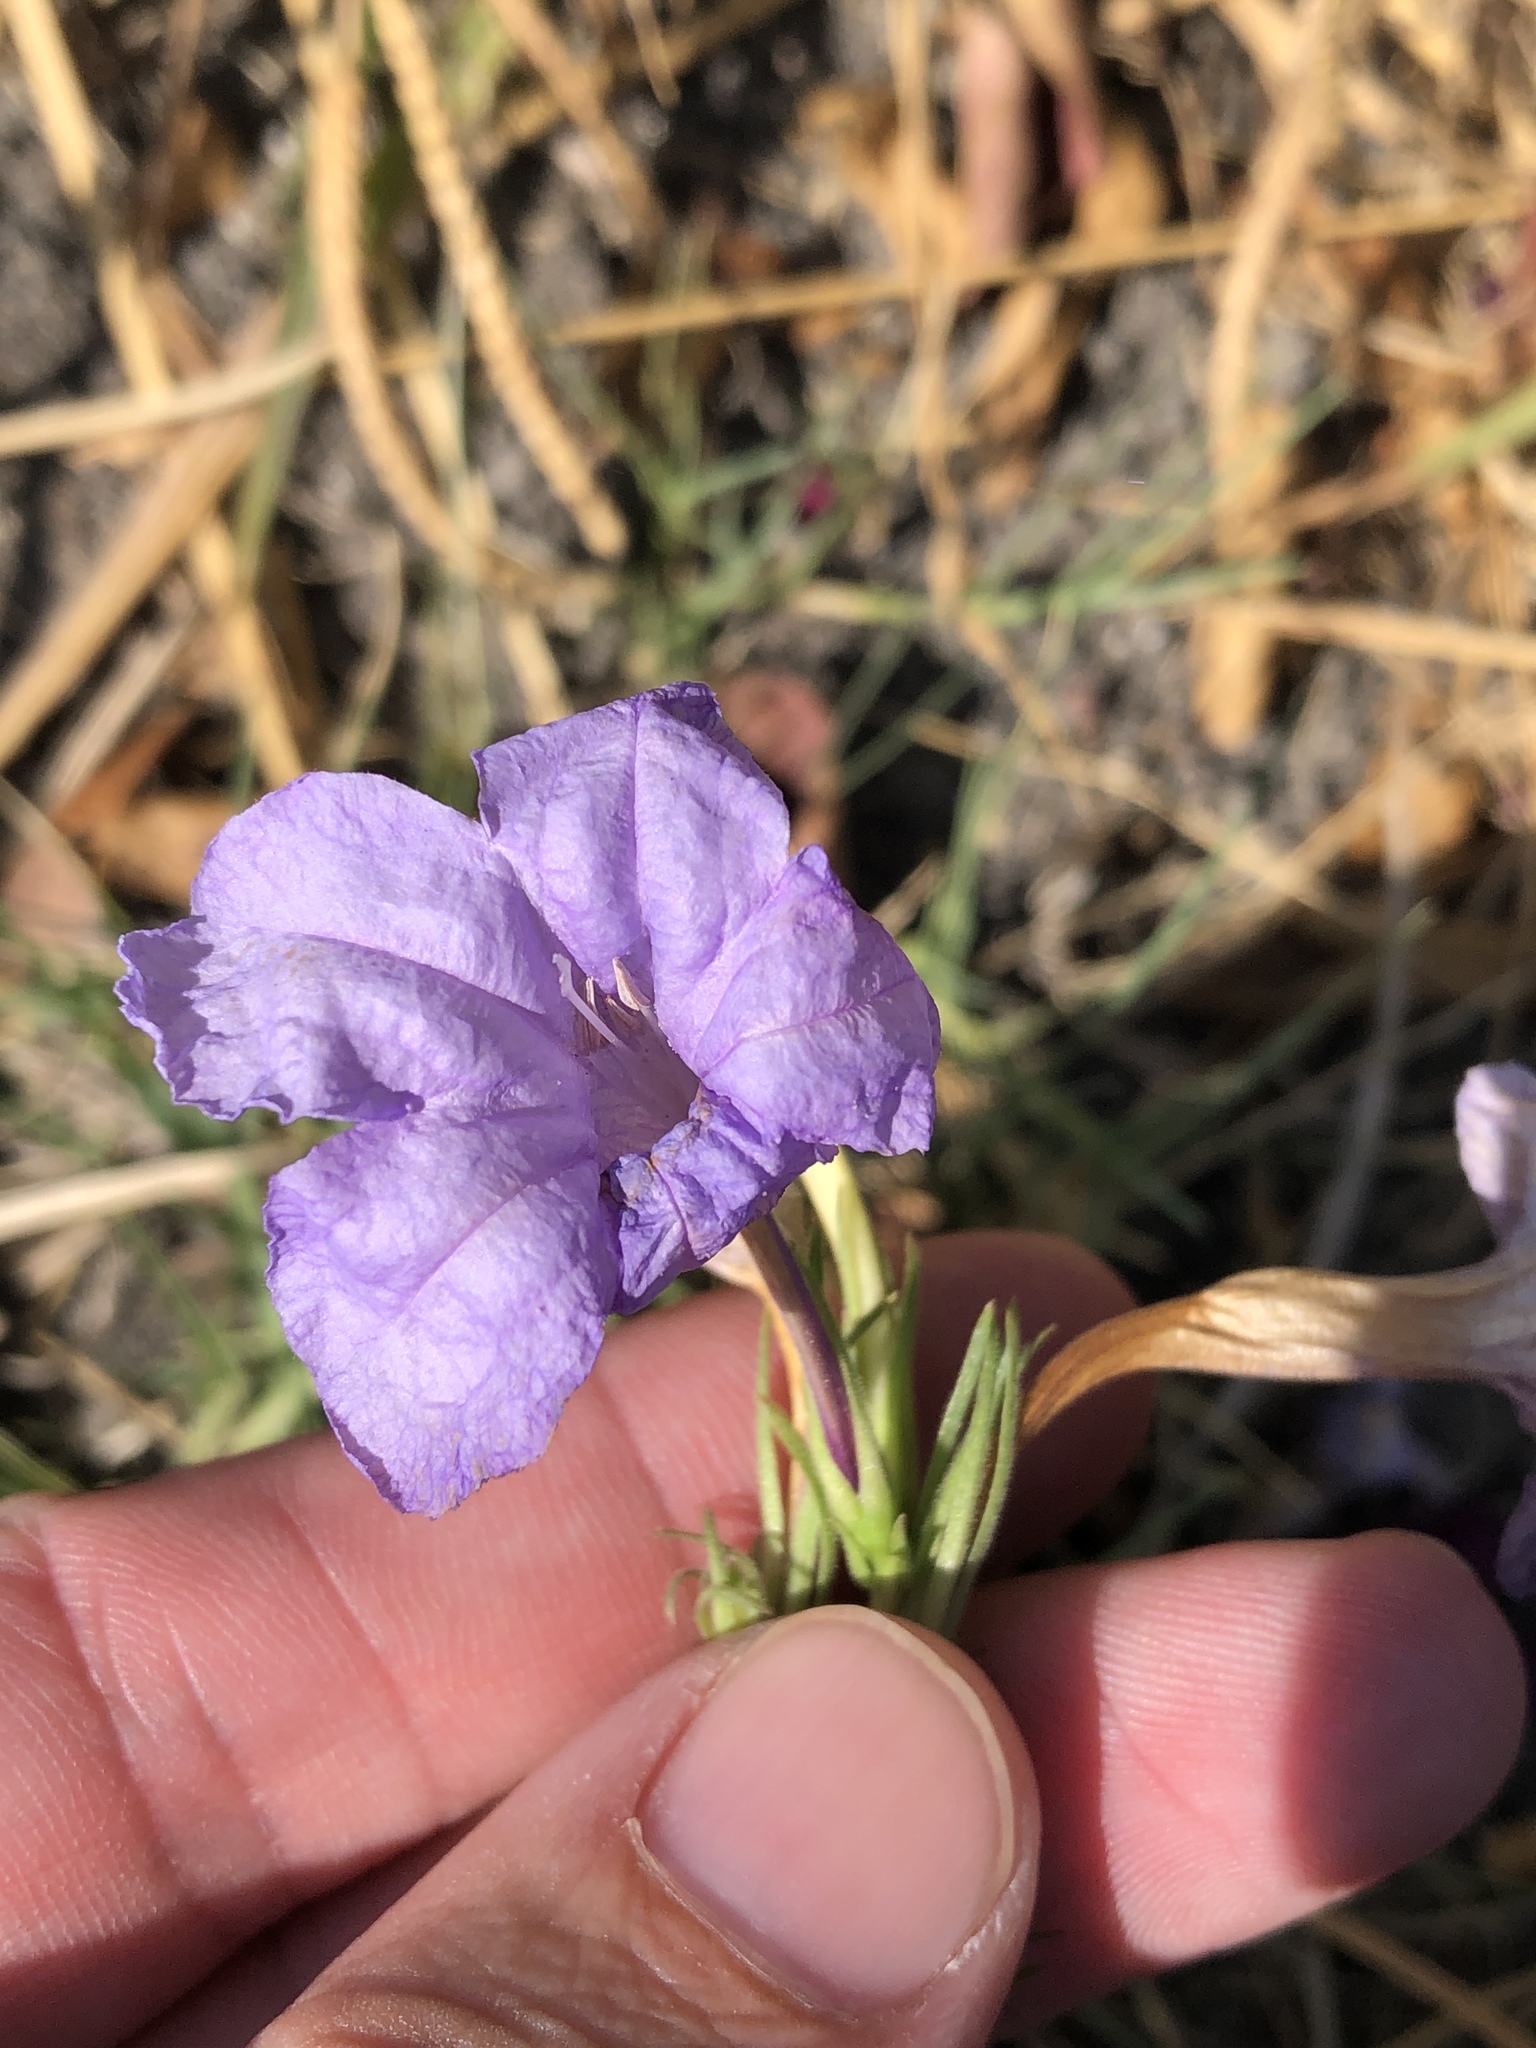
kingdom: Plantae
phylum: Tracheophyta
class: Magnoliopsida
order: Lamiales
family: Acanthaceae
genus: Ruellia
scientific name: Ruellia ciliatiflora
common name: Hairyflower wild petunia
